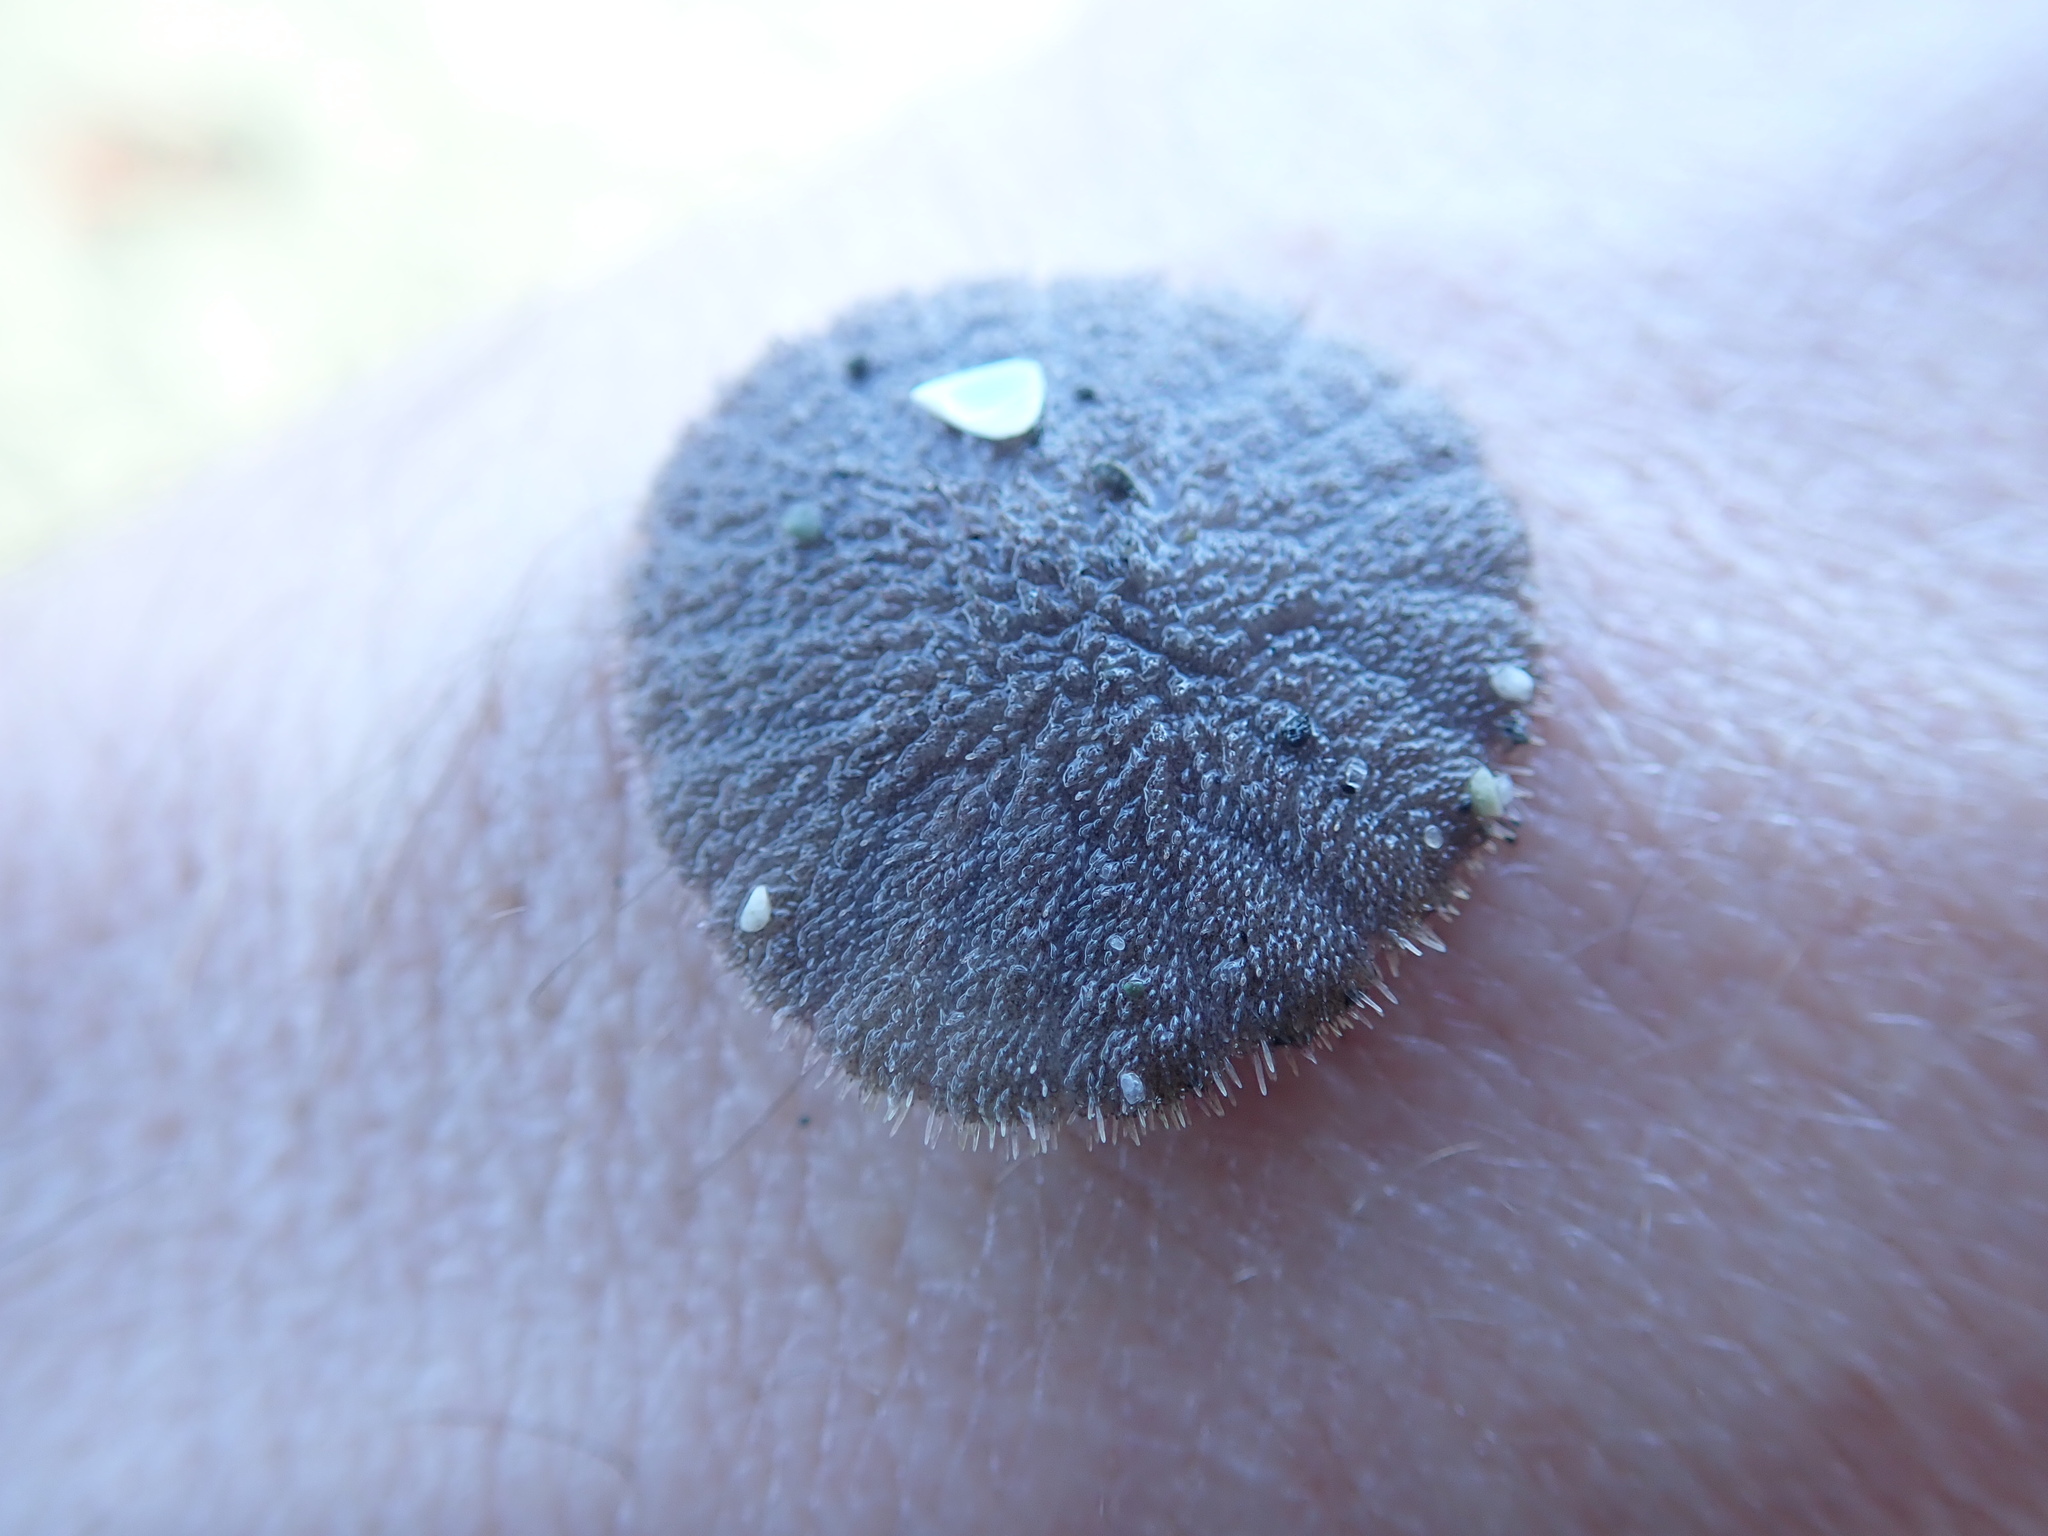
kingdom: Animalia
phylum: Echinodermata
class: Echinoidea
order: Echinolampadacea
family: Dendrasteridae
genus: Dendraster
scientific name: Dendraster excentricus
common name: Eccentric sand dollar sea urchin
